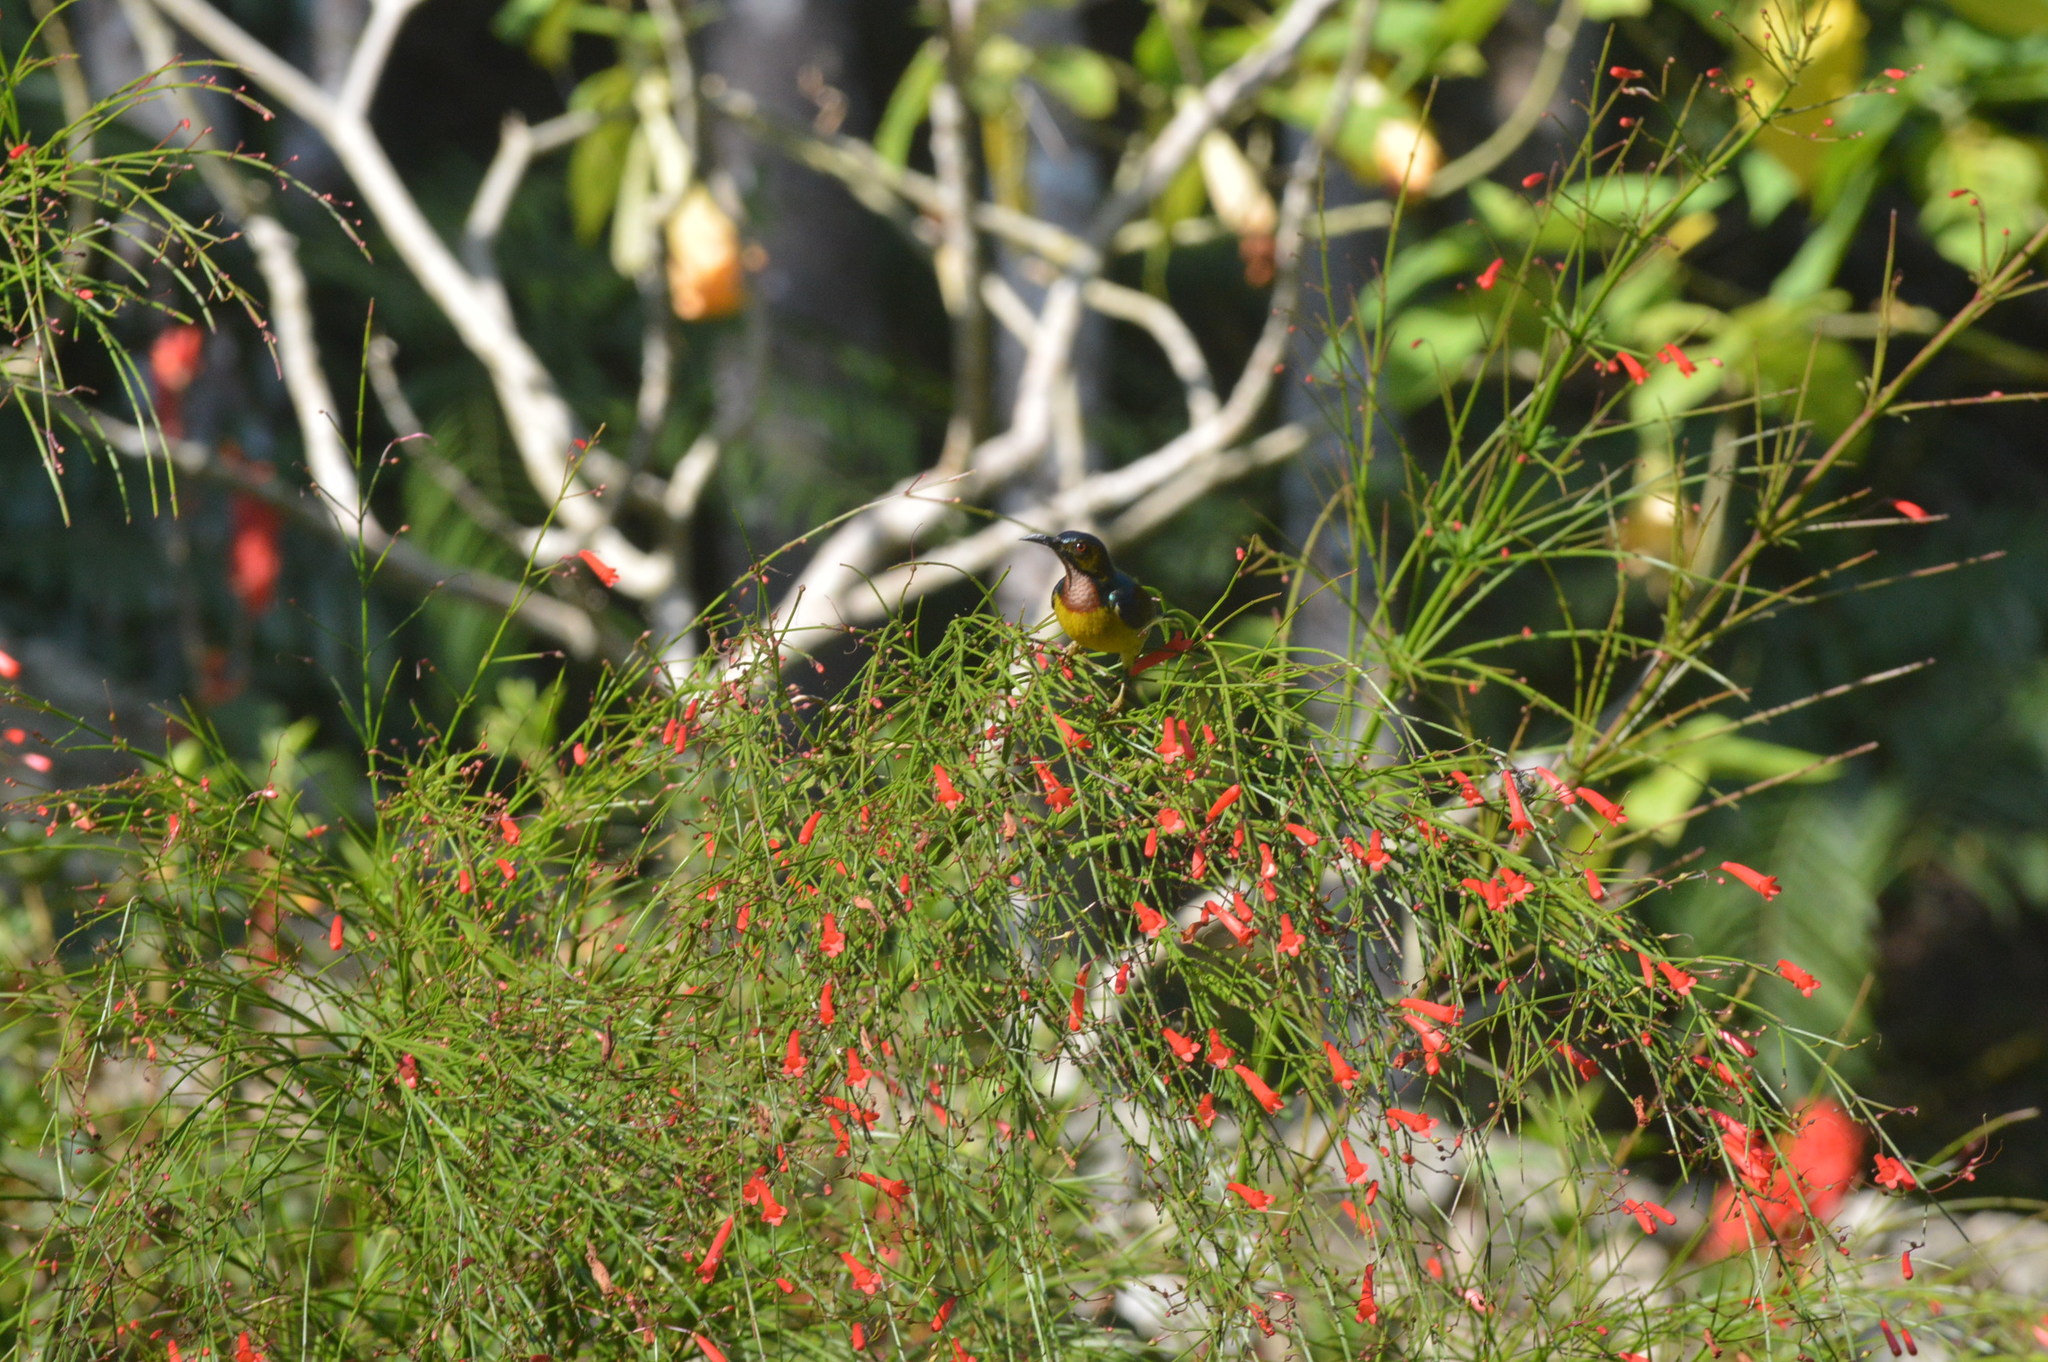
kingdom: Animalia
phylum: Chordata
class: Aves
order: Passeriformes
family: Nectariniidae
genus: Anthreptes
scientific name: Anthreptes malacensis
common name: Brown-throated sunbird
